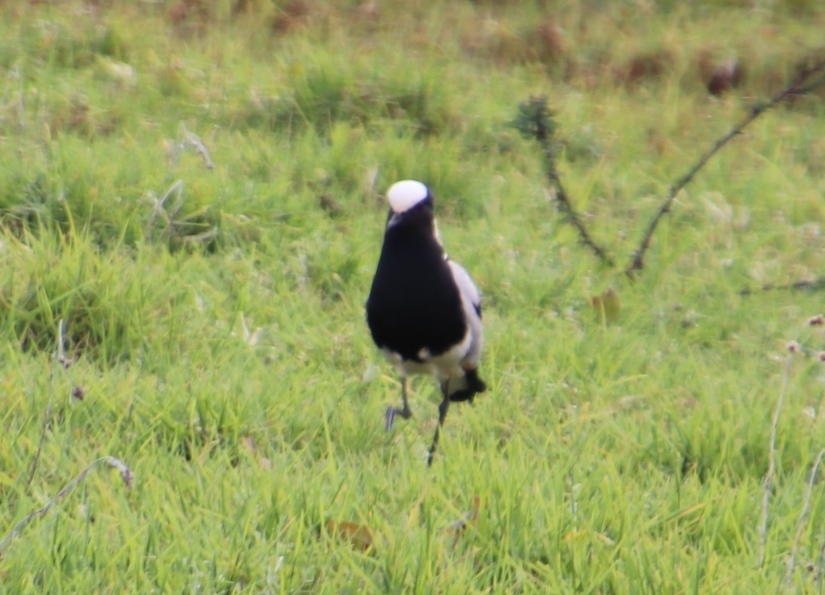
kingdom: Animalia
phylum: Chordata
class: Aves
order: Charadriiformes
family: Charadriidae
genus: Vanellus
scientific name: Vanellus armatus
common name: Blacksmith lapwing
